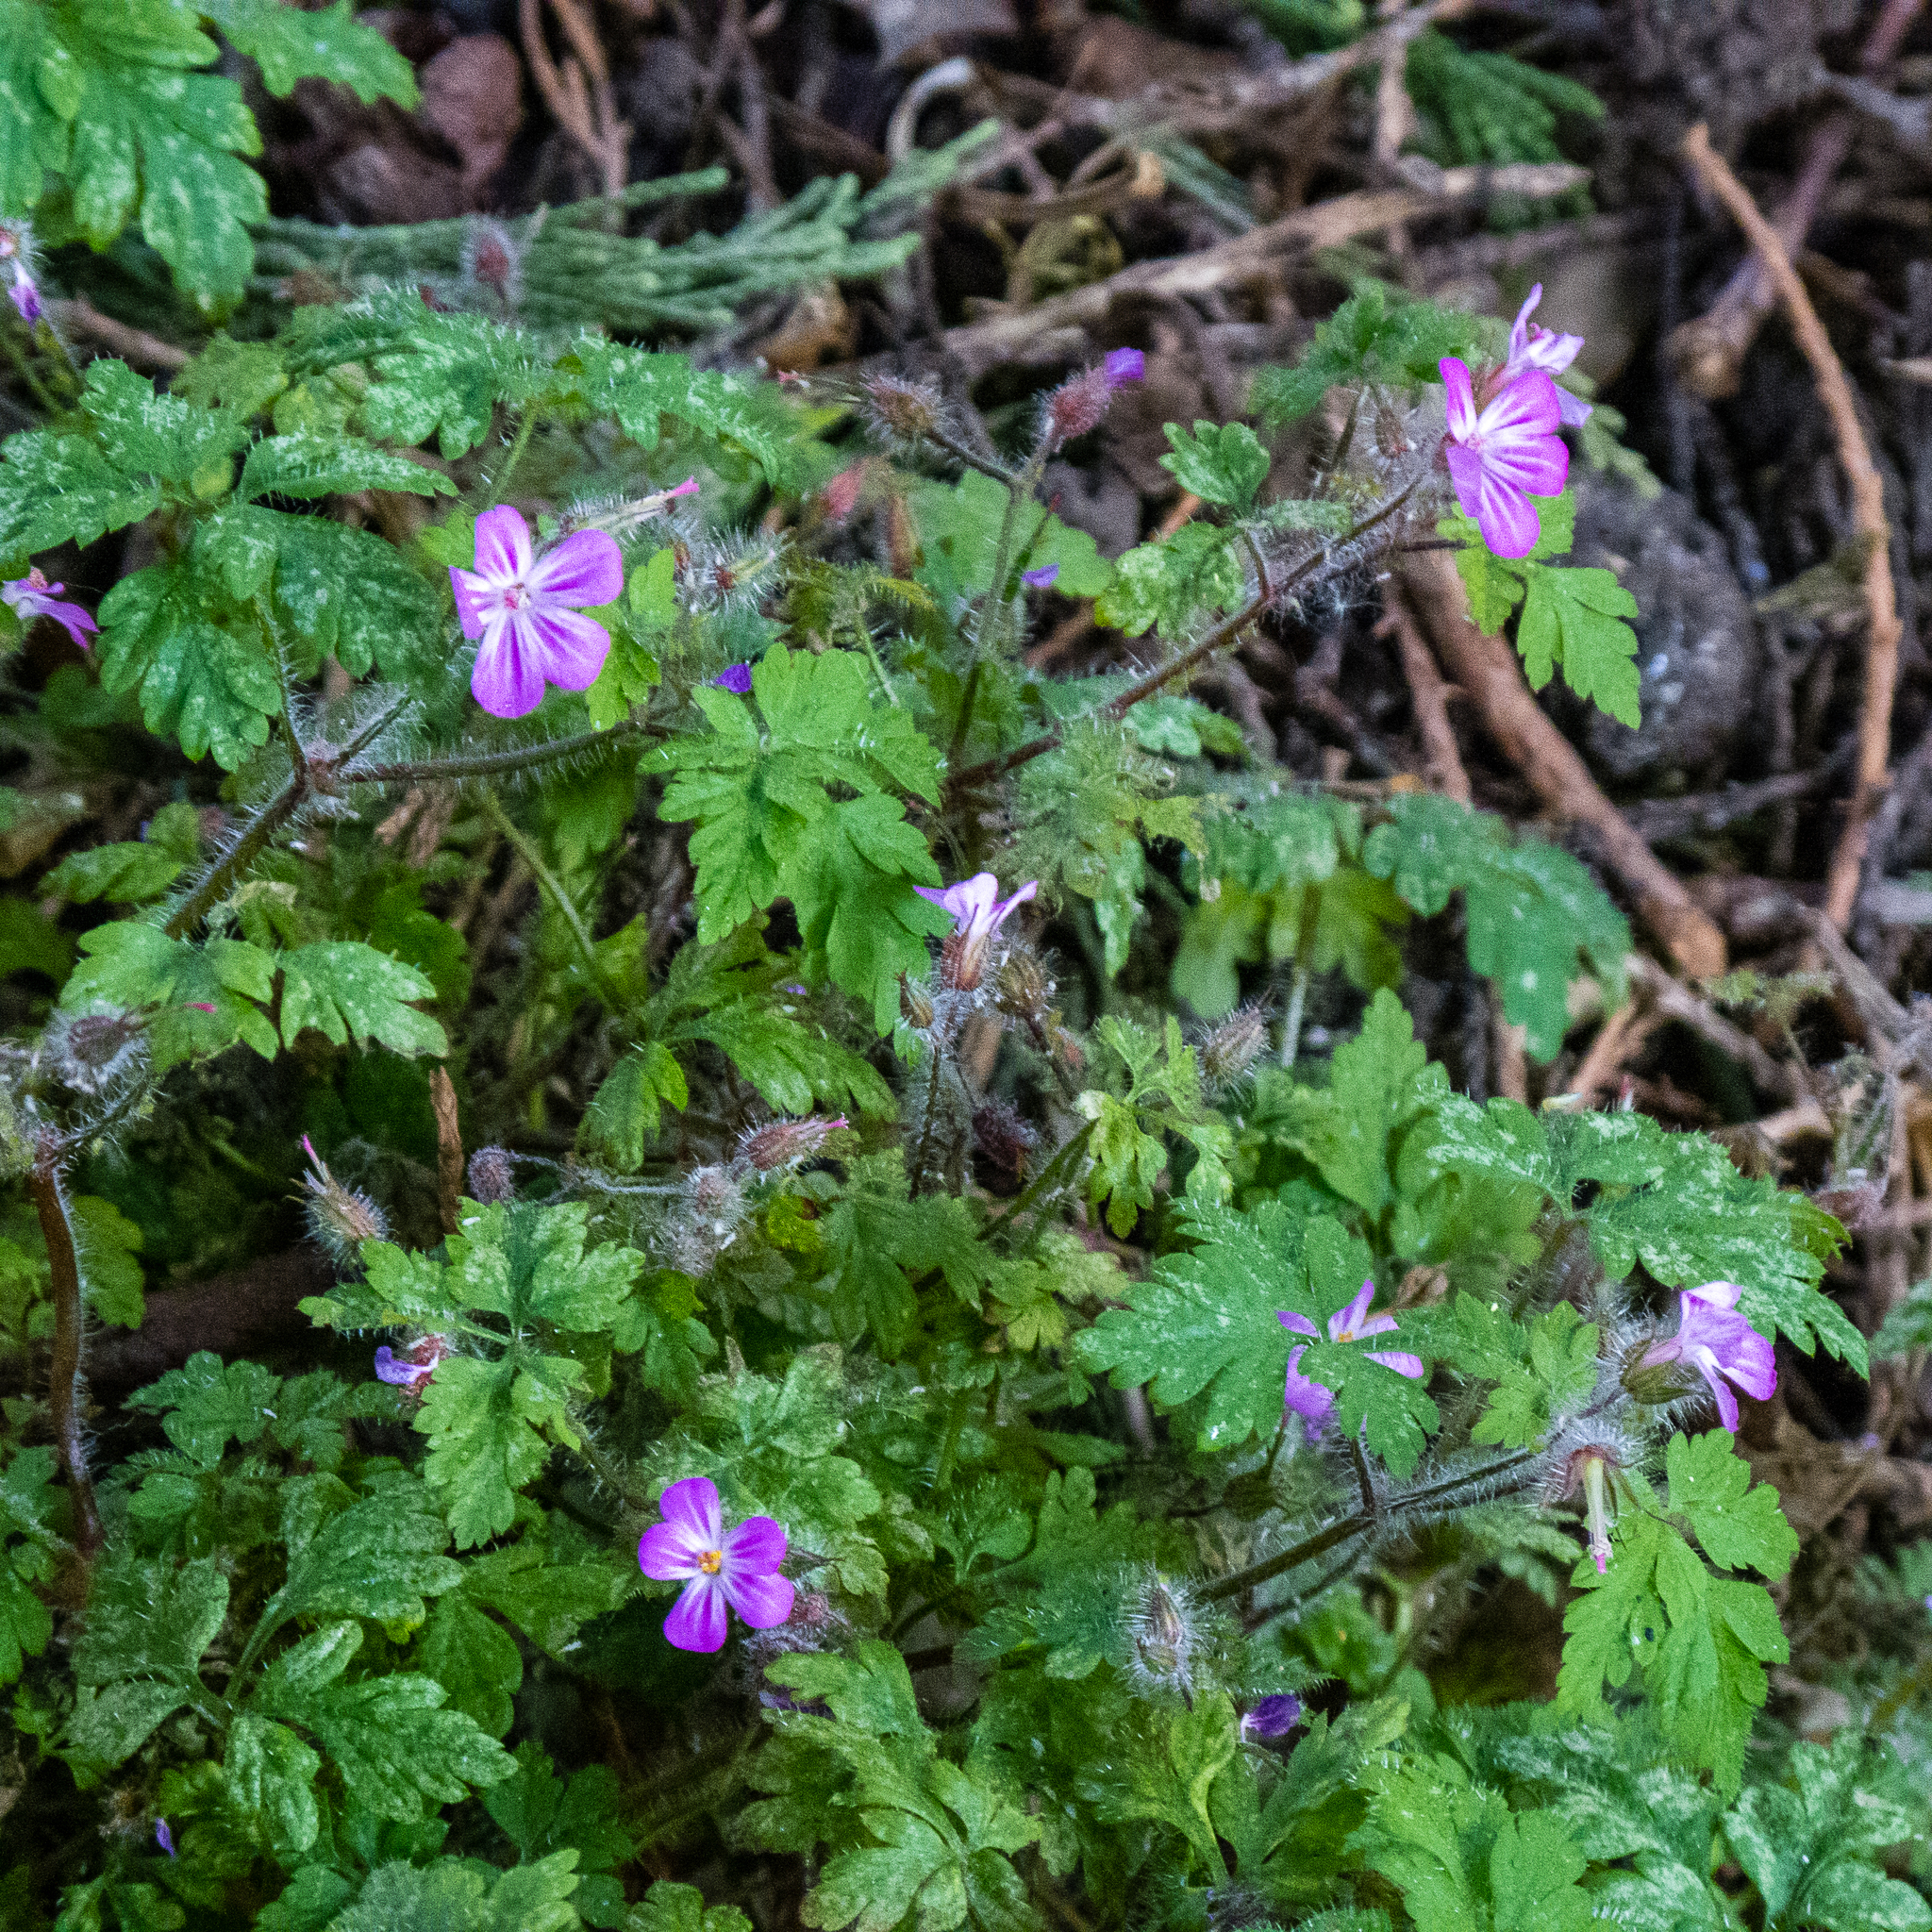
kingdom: Plantae
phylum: Tracheophyta
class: Magnoliopsida
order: Geraniales
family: Geraniaceae
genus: Geranium
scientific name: Geranium robertianum
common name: Herb-robert
